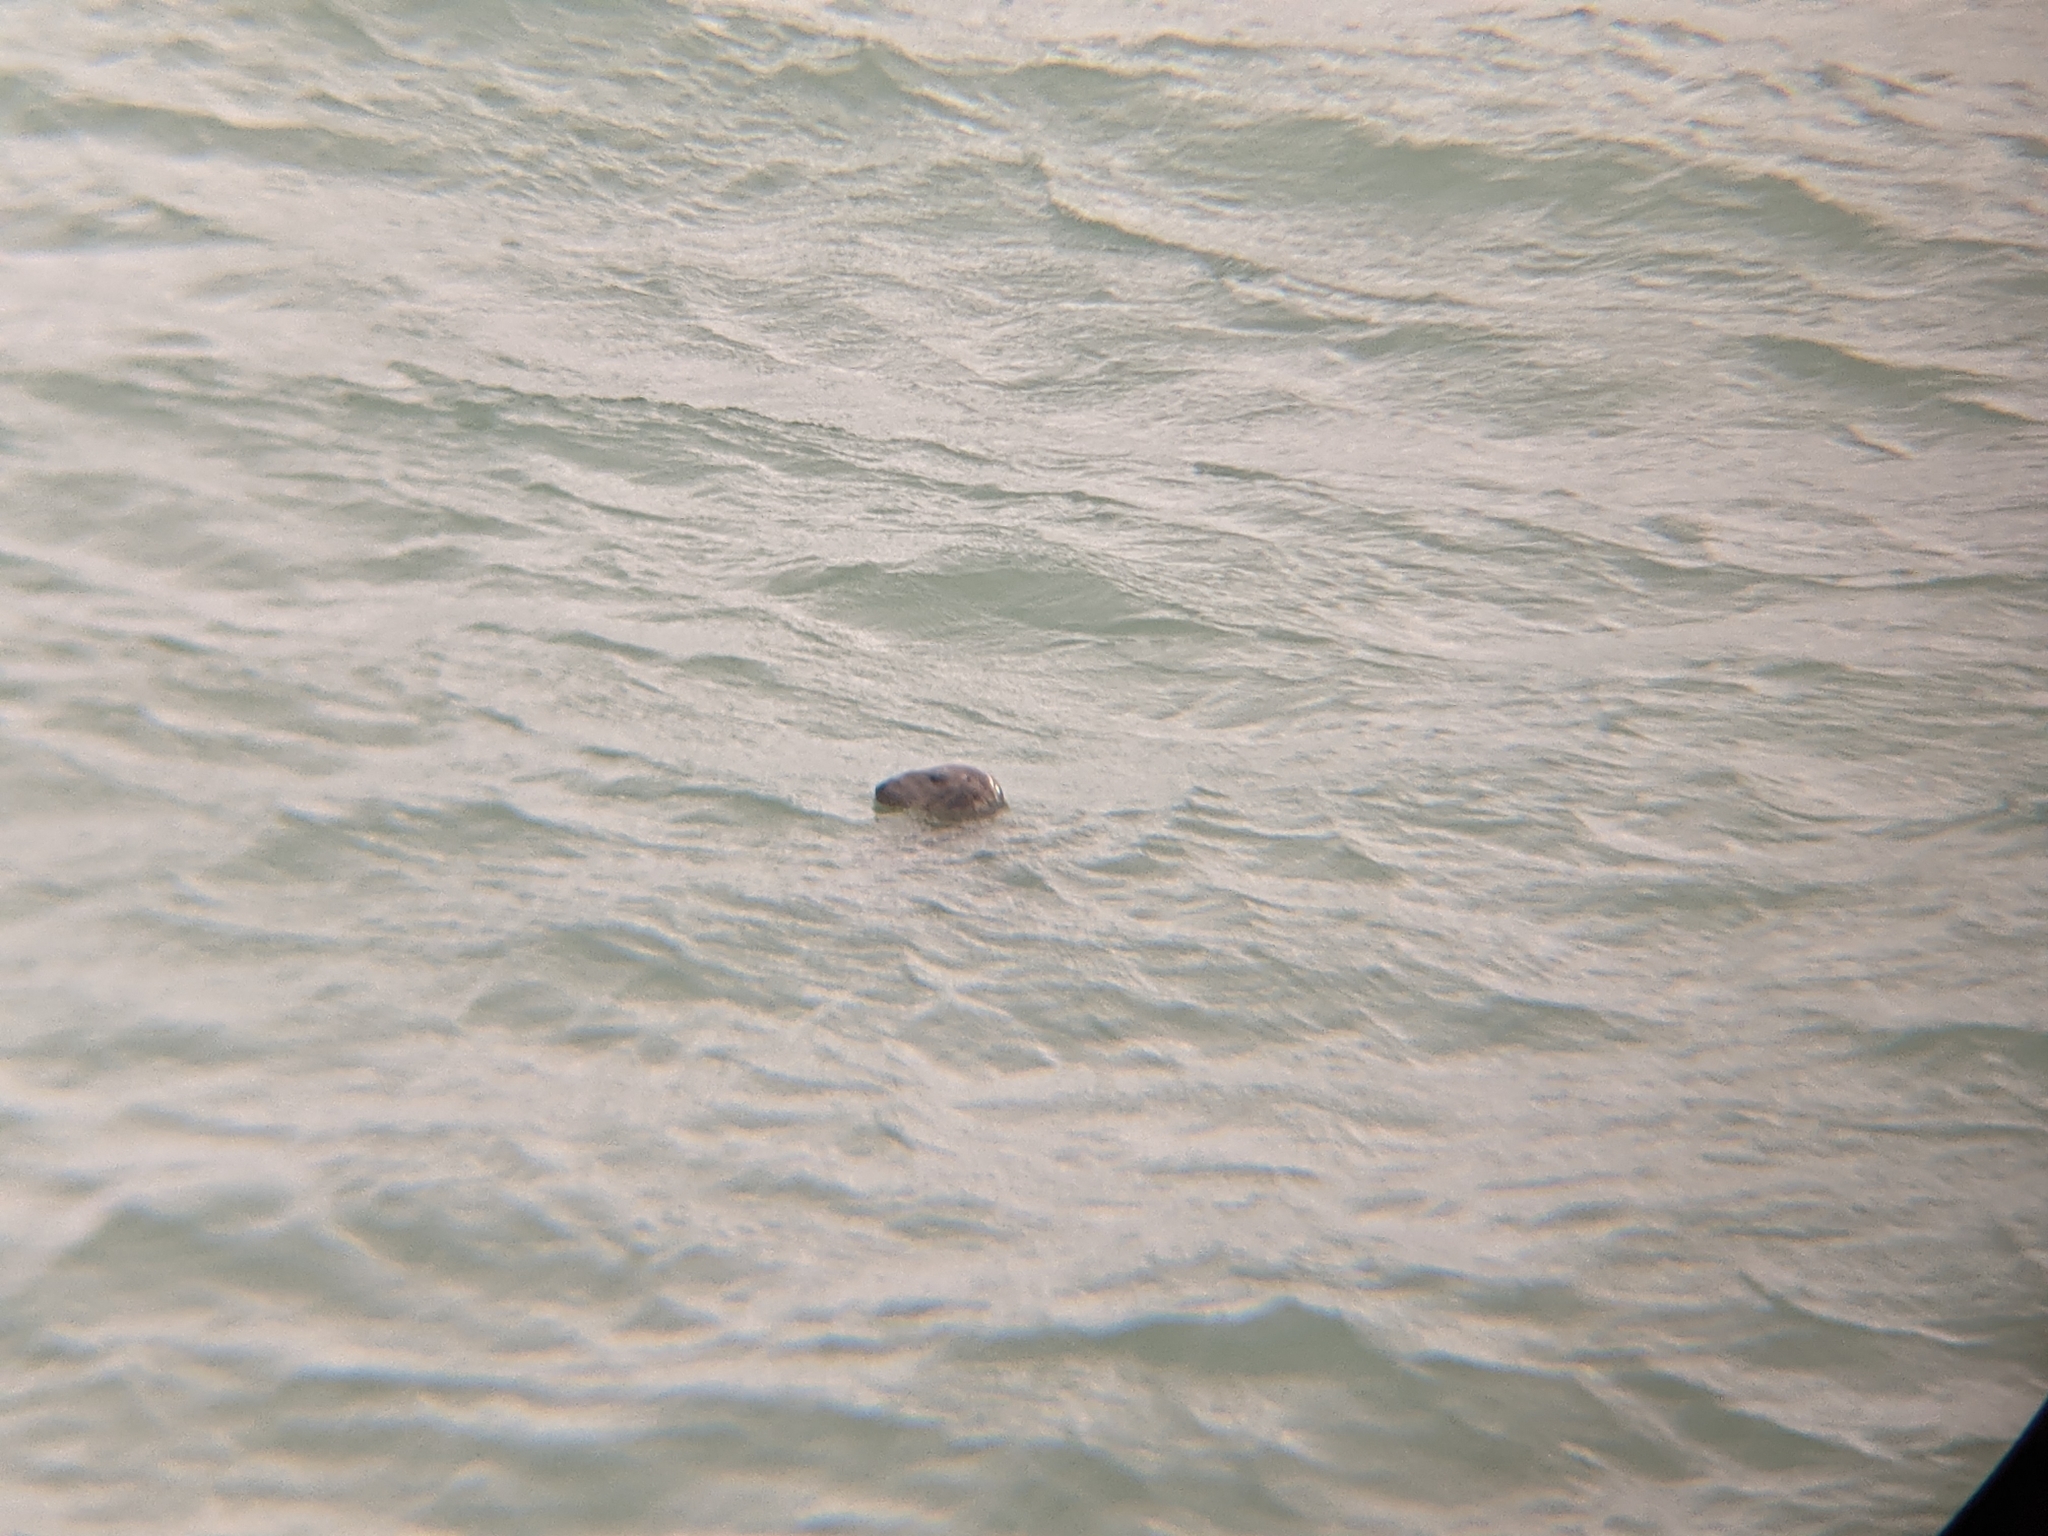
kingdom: Animalia
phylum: Chordata
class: Mammalia
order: Carnivora
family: Phocidae
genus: Halichoerus
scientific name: Halichoerus grypus
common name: Grey seal
